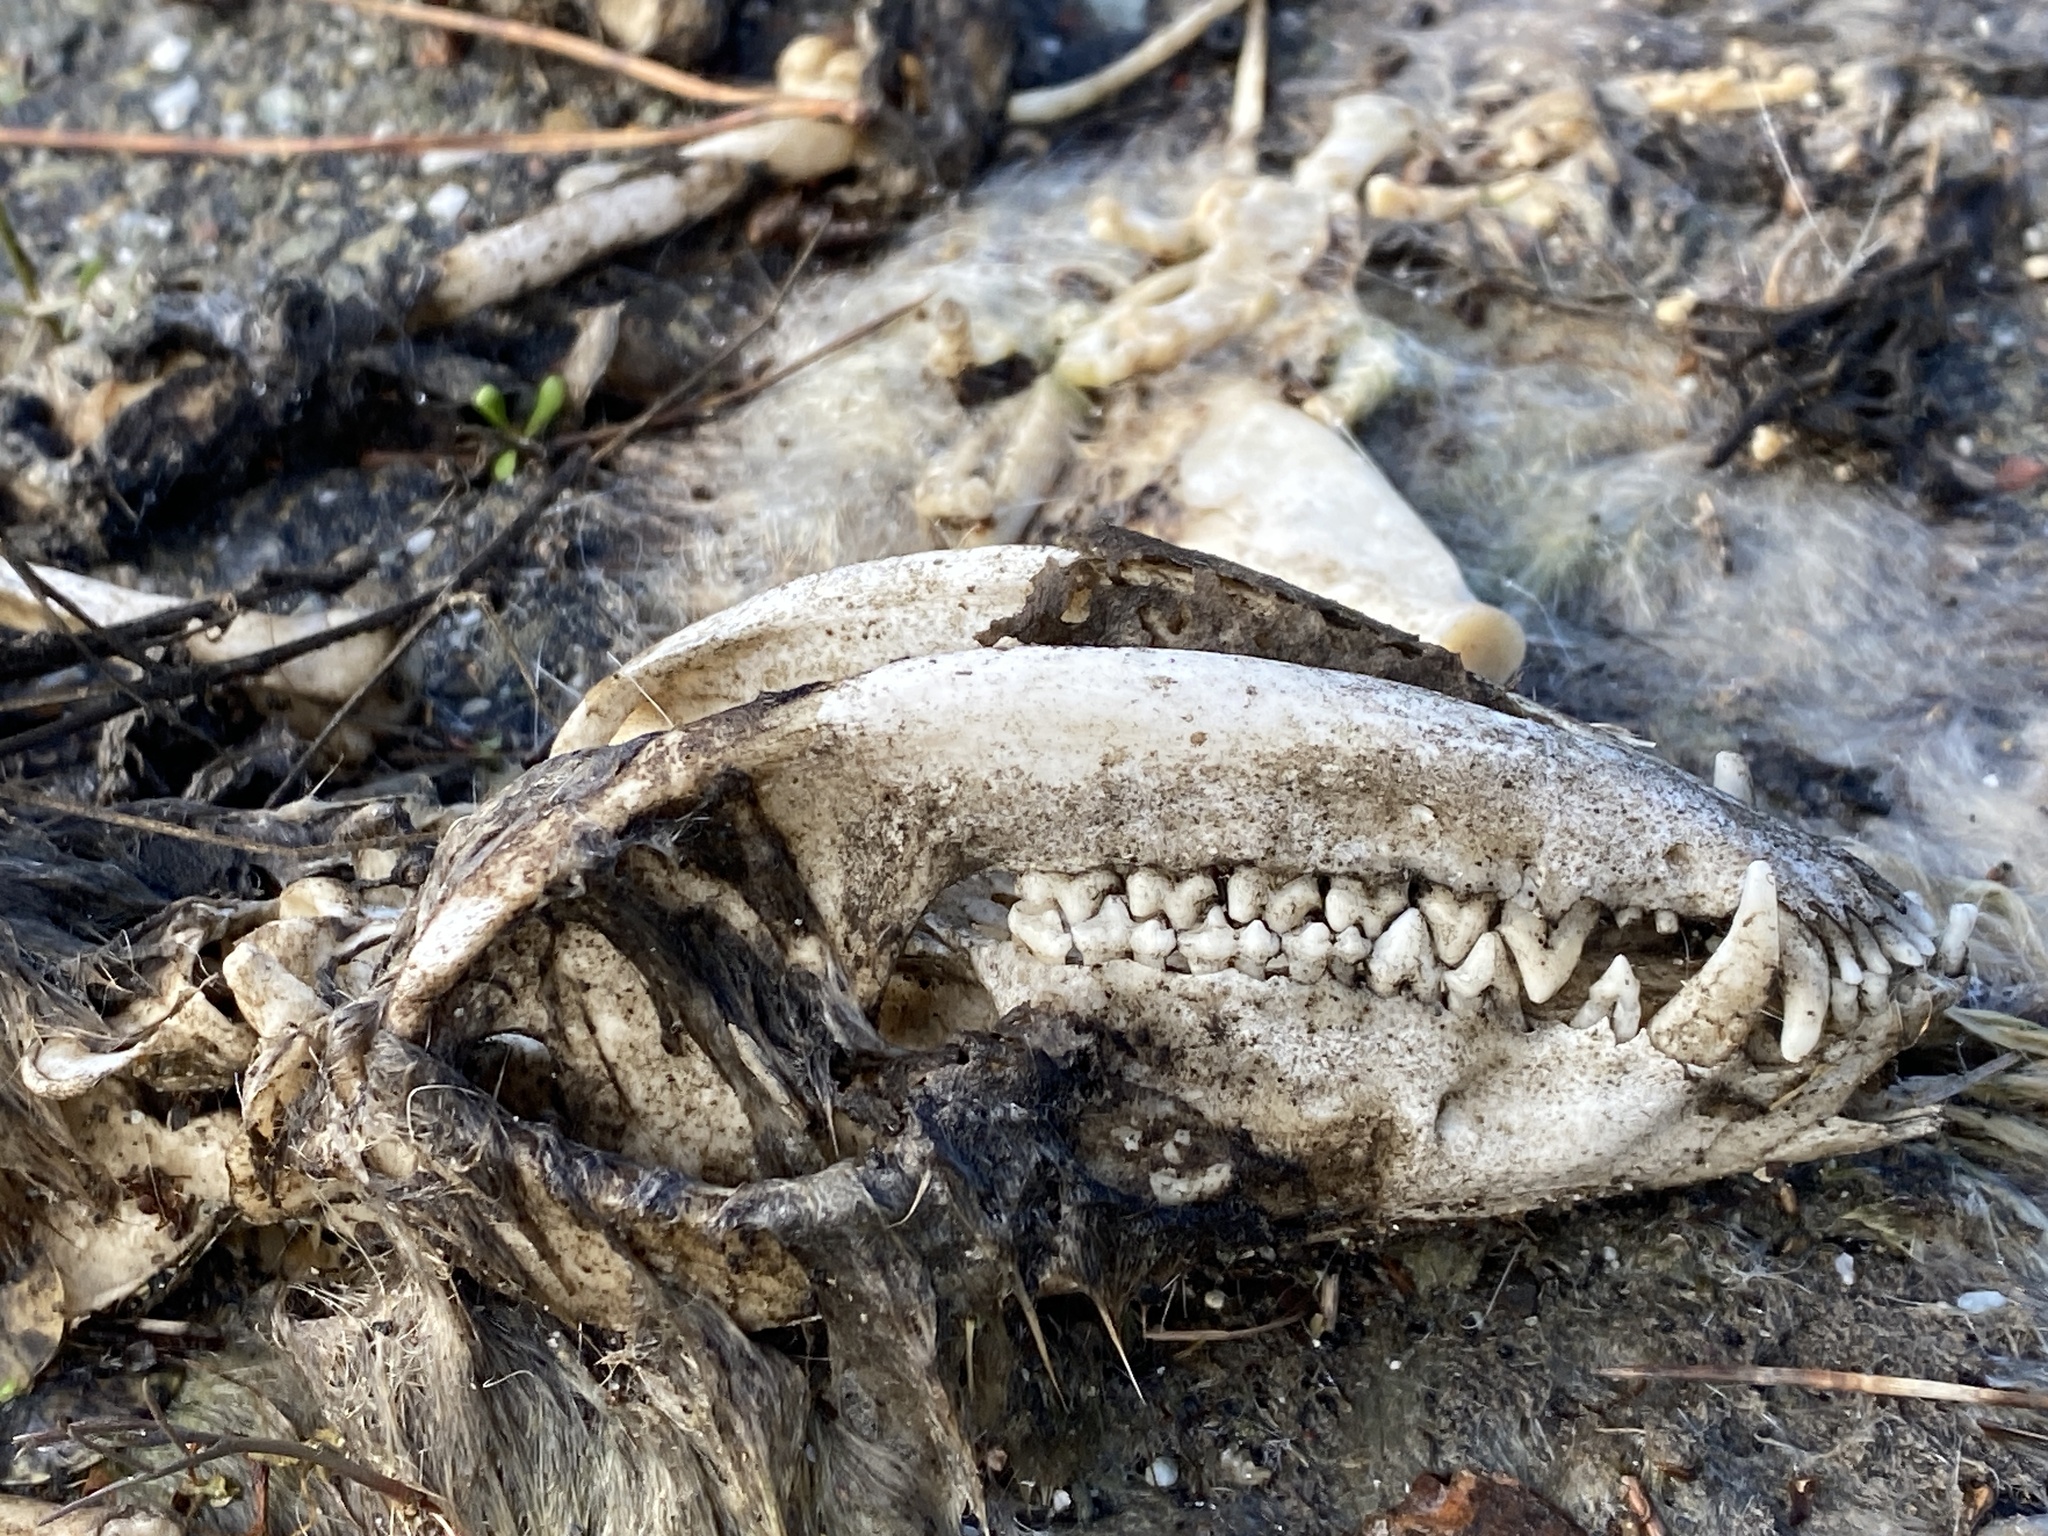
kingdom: Animalia
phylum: Chordata
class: Mammalia
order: Didelphimorphia
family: Didelphidae
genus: Didelphis
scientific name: Didelphis virginiana
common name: Virginia opossum
